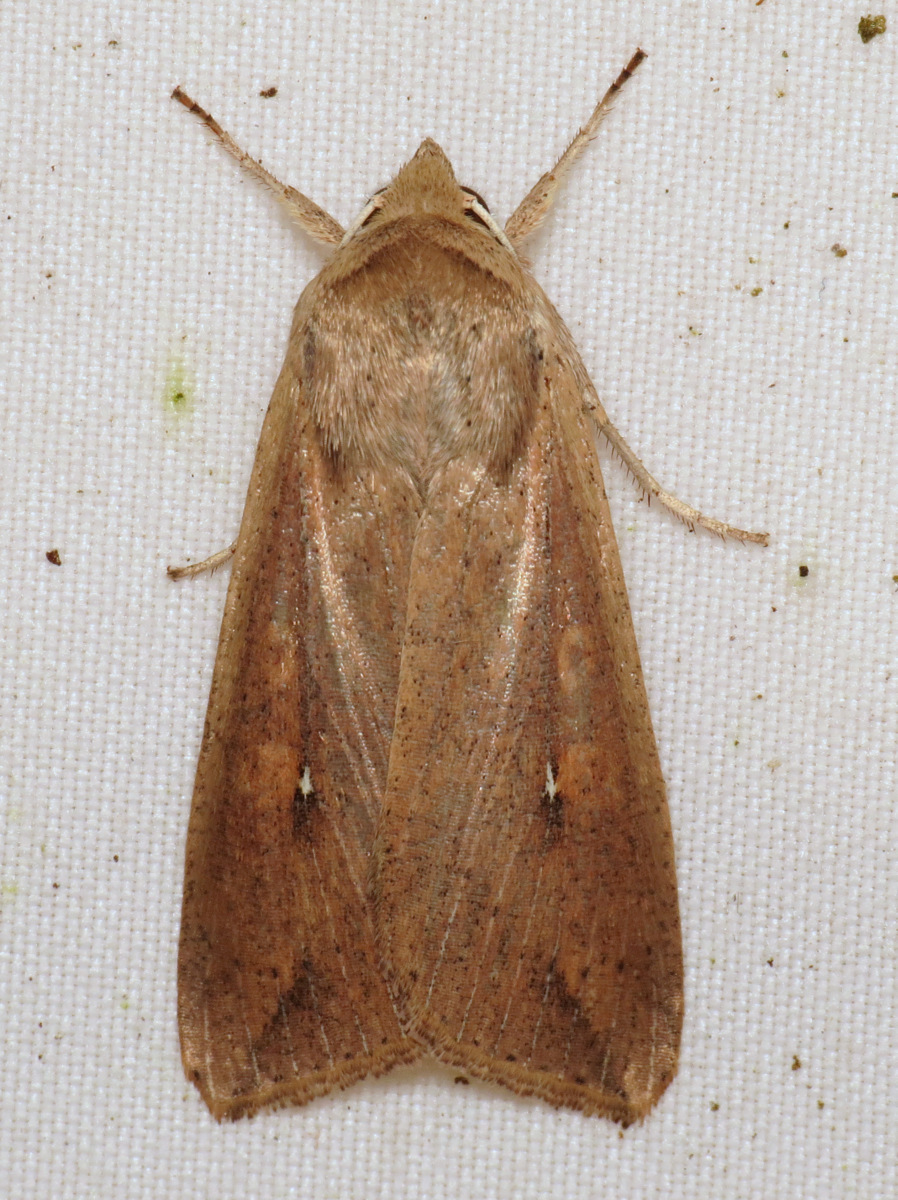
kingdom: Animalia
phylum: Arthropoda
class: Insecta
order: Lepidoptera
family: Noctuidae
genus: Mythimna
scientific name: Mythimna unipuncta
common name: White-speck
